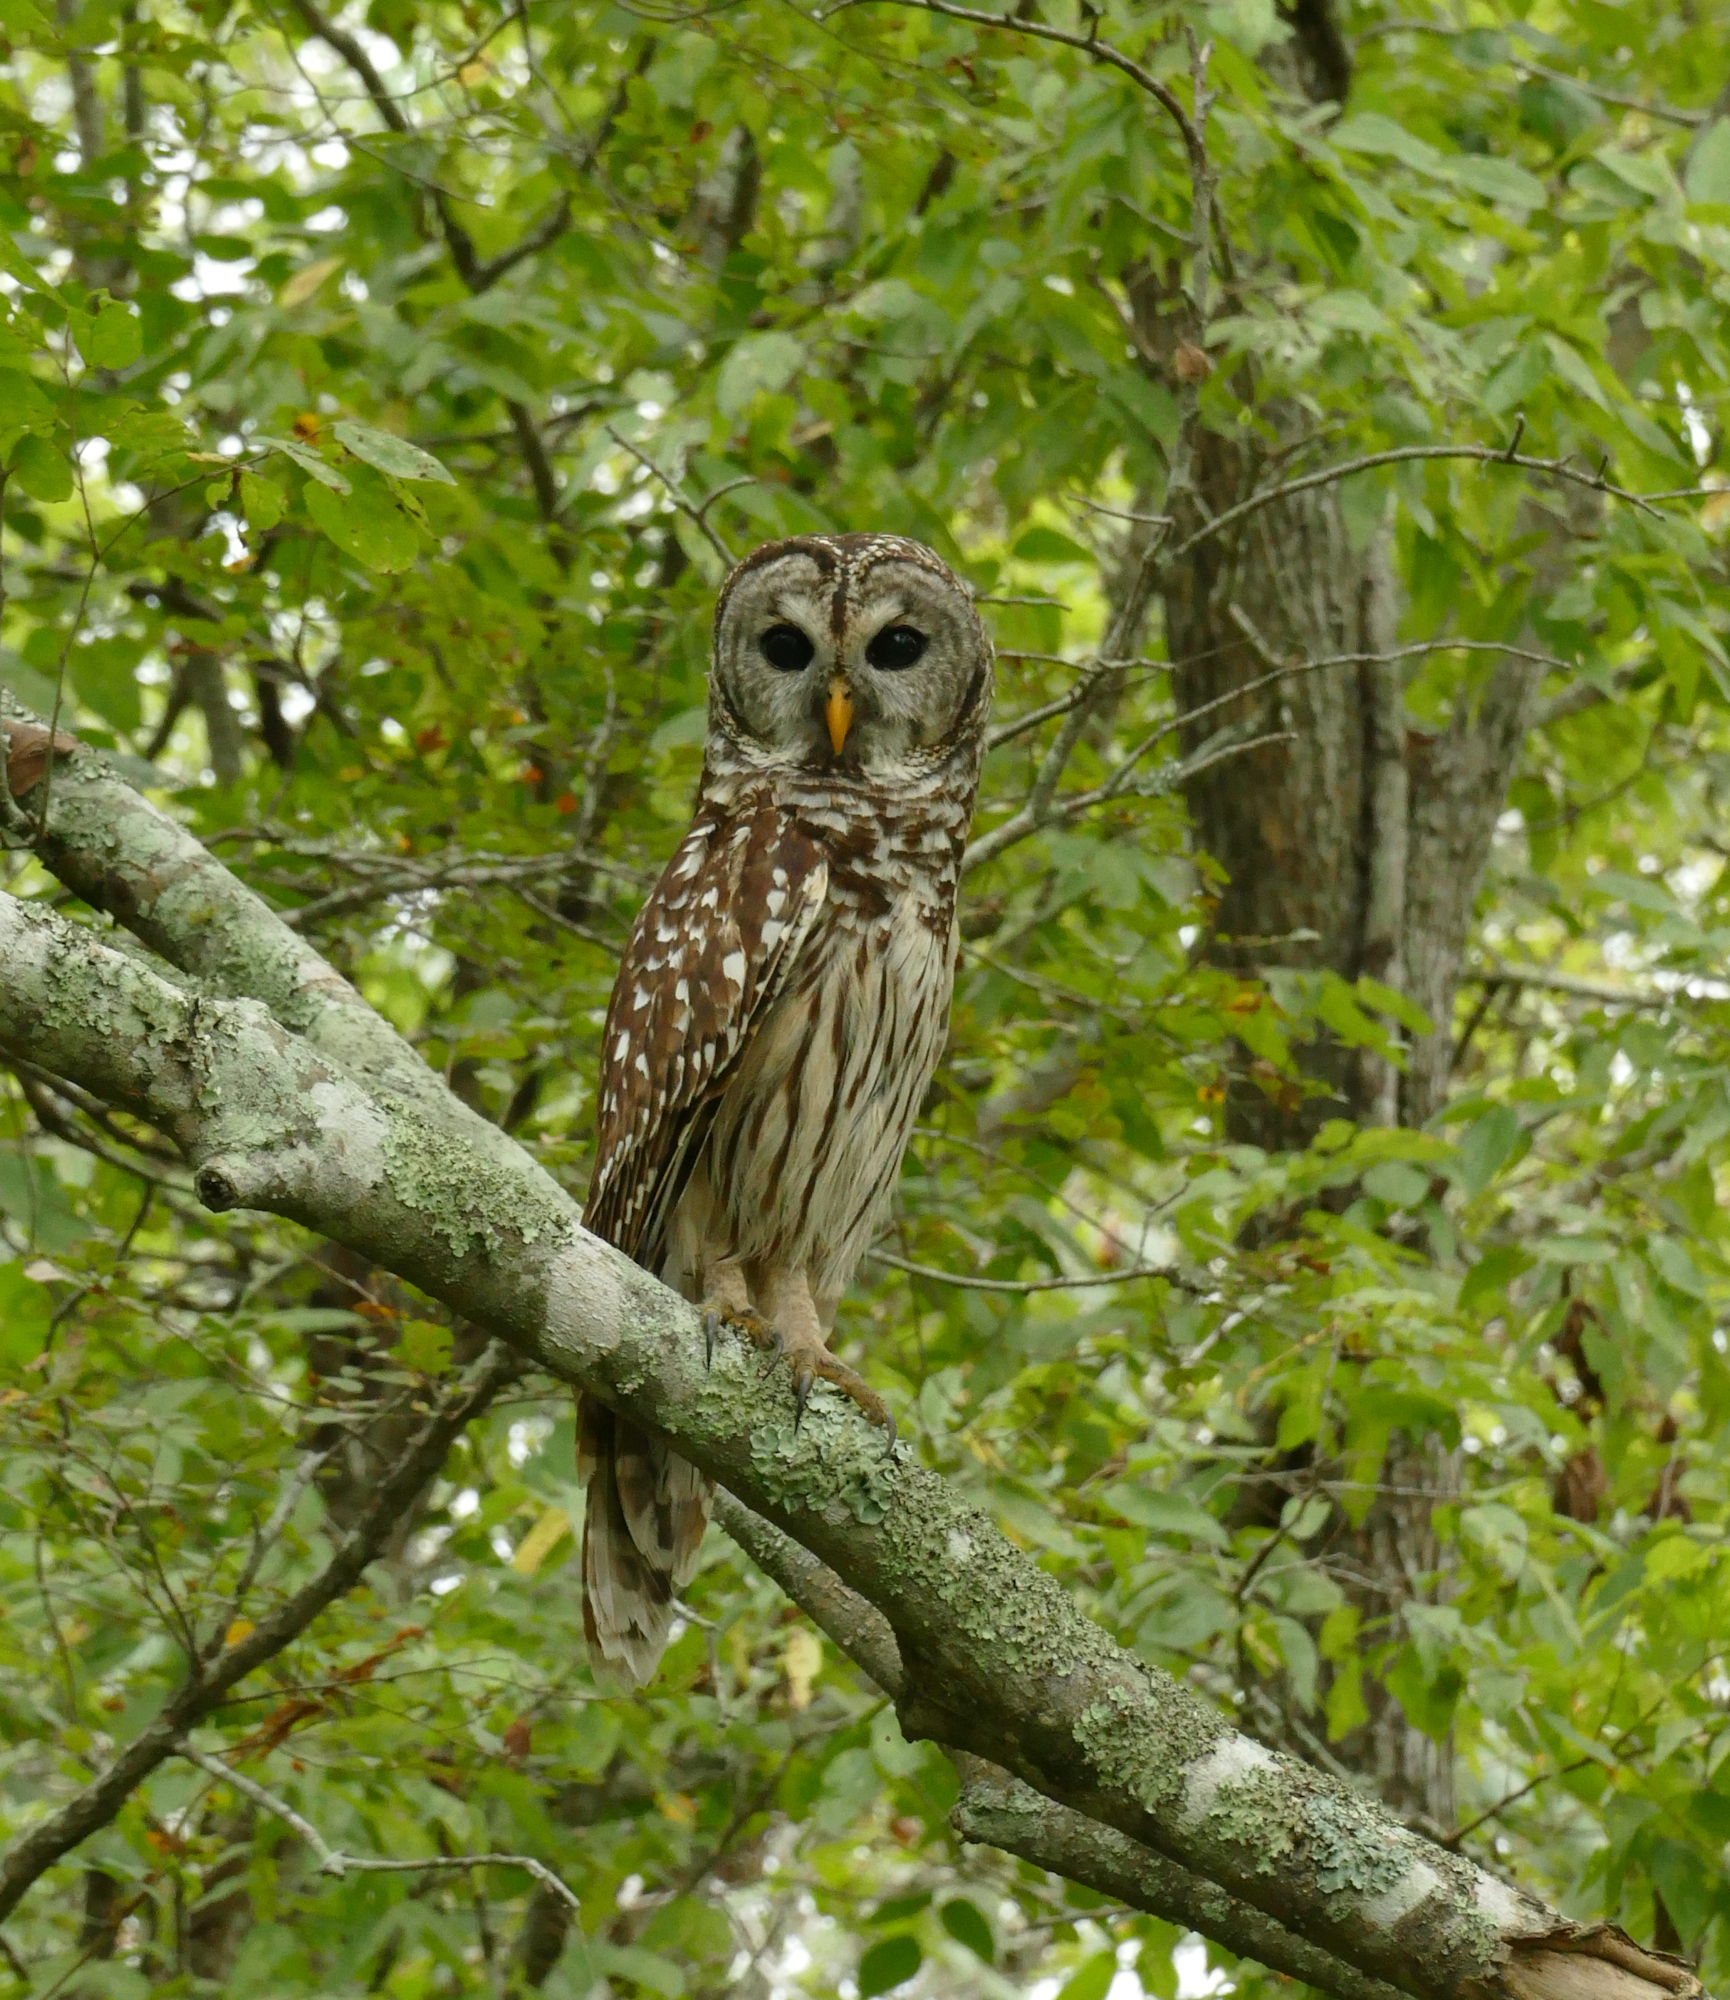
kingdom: Animalia
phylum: Chordata
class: Aves
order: Strigiformes
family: Strigidae
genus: Strix
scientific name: Strix varia
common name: Barred owl
